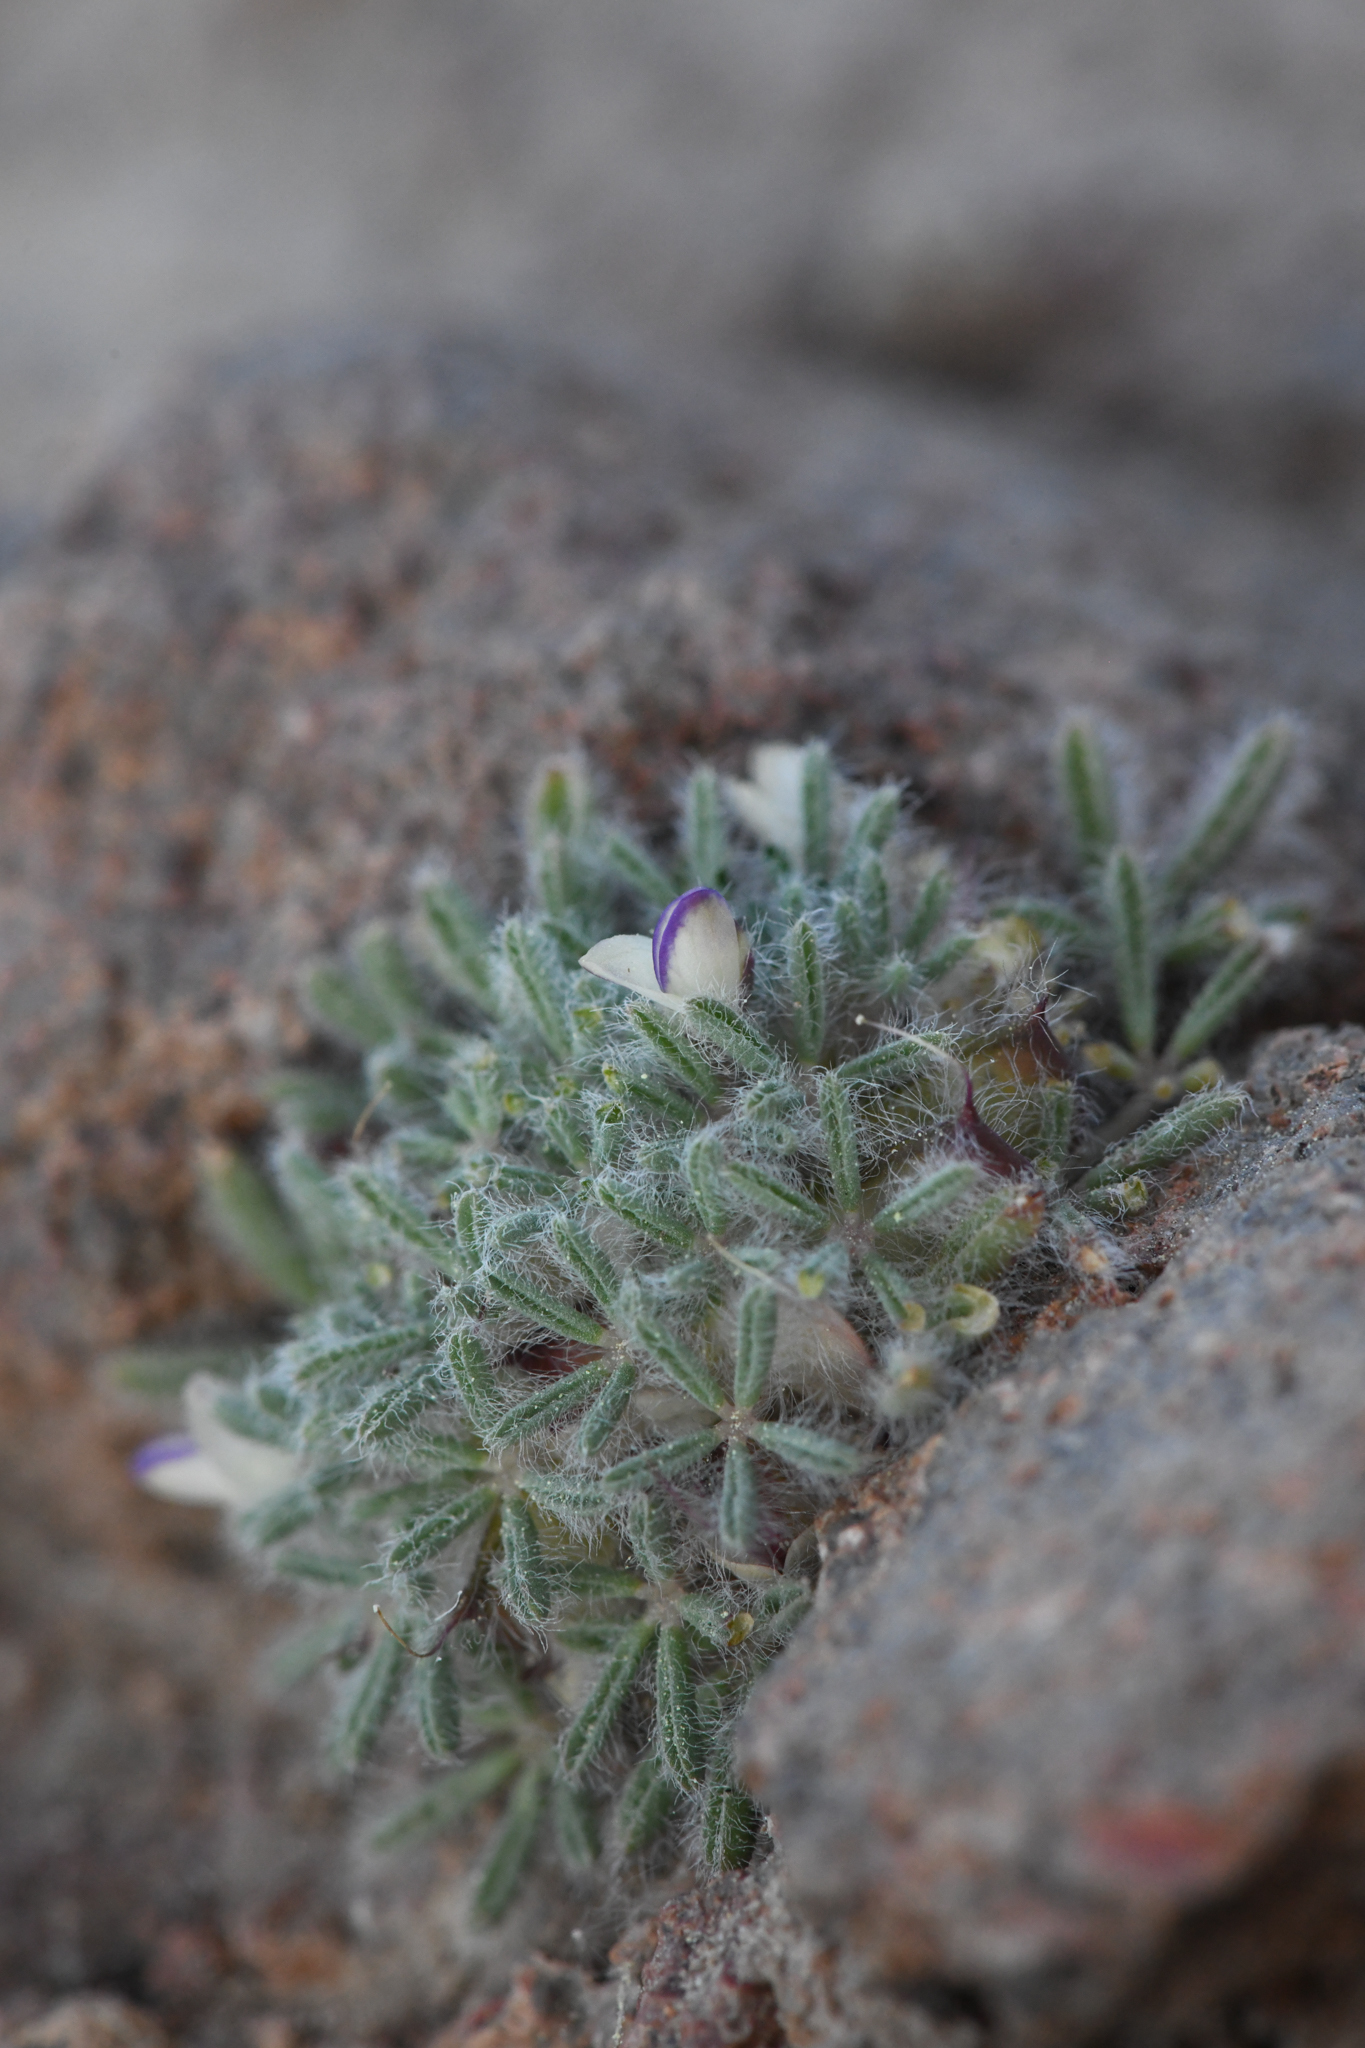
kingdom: Plantae
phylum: Tracheophyta
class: Magnoliopsida
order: Fabales
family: Fabaceae
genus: Lupinus
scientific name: Lupinus uncialis
